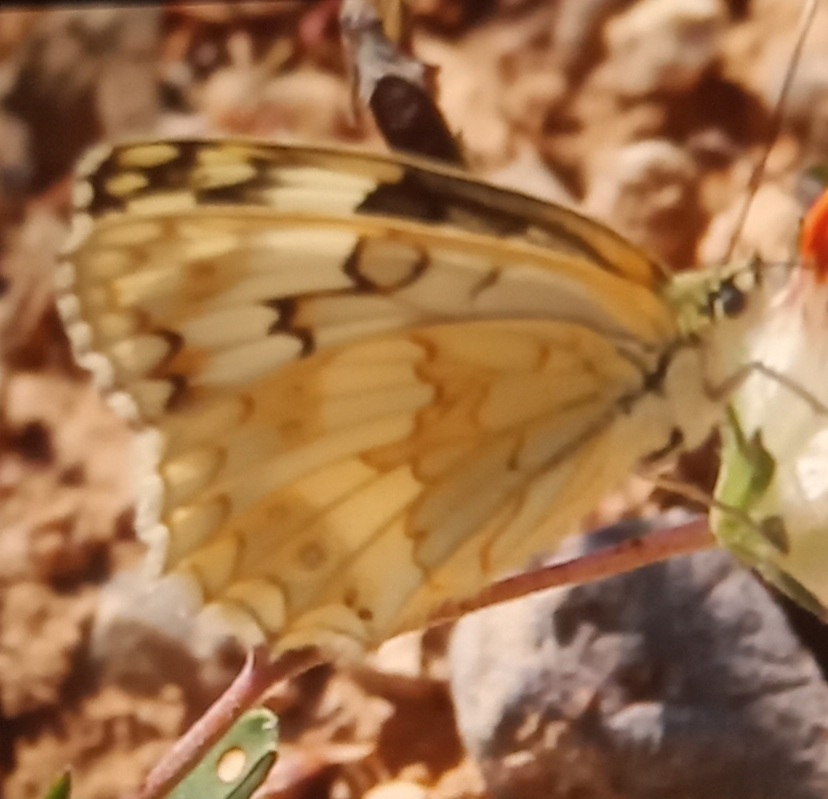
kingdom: Animalia
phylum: Arthropoda
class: Insecta
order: Lepidoptera
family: Nymphalidae
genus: Melanargia
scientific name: Melanargia larissa
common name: Balkan marbled white
